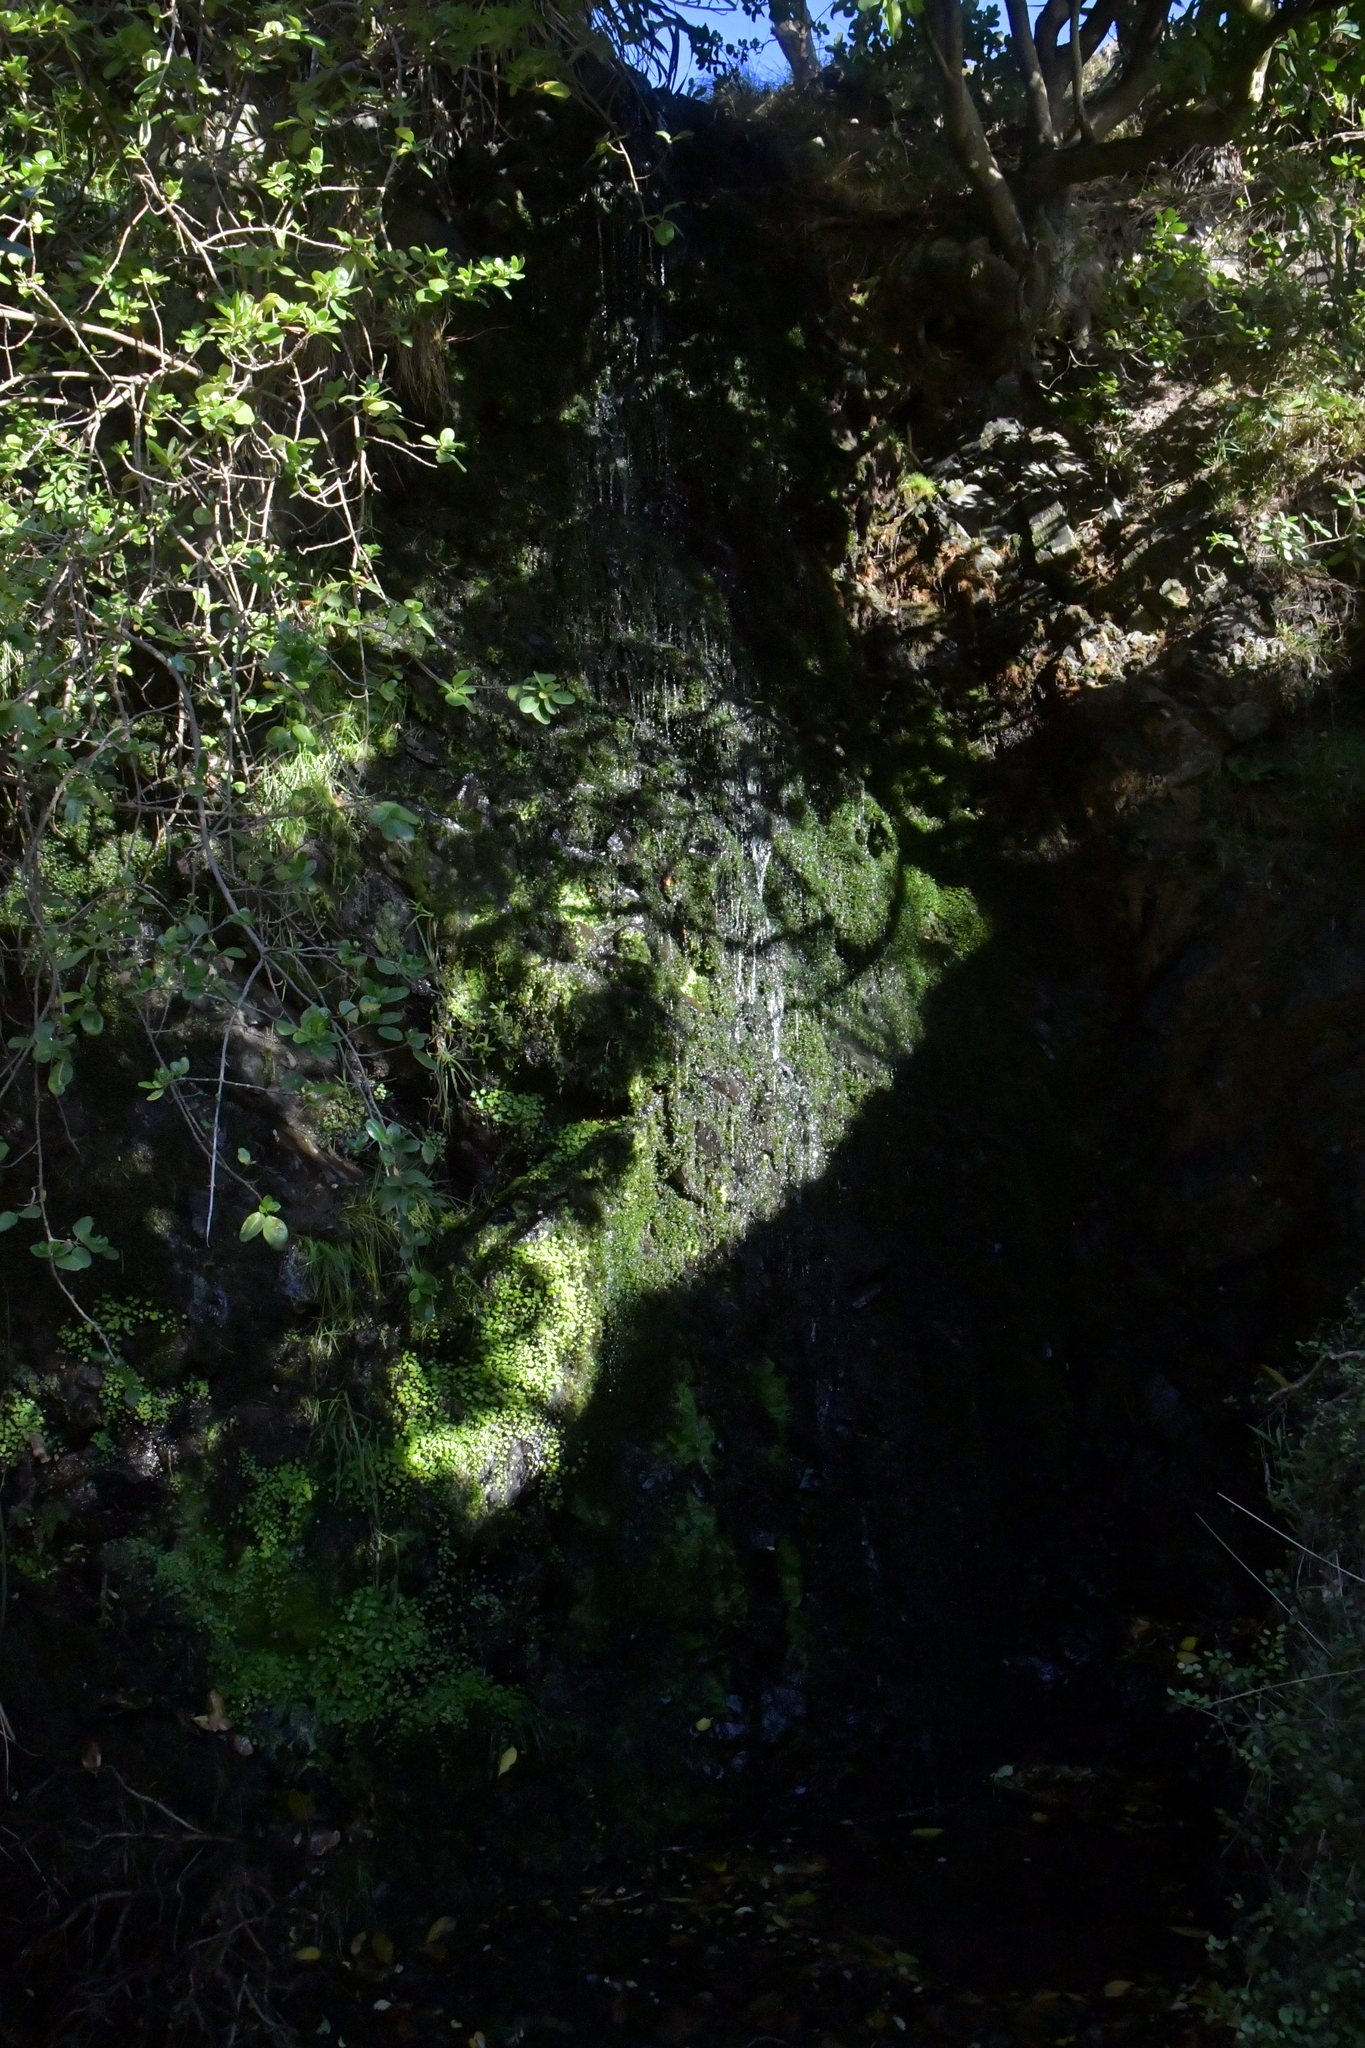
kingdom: Plantae
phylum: Tracheophyta
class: Magnoliopsida
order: Apiales
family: Araliaceae
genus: Hydrocotyle
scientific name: Hydrocotyle heteromeria
